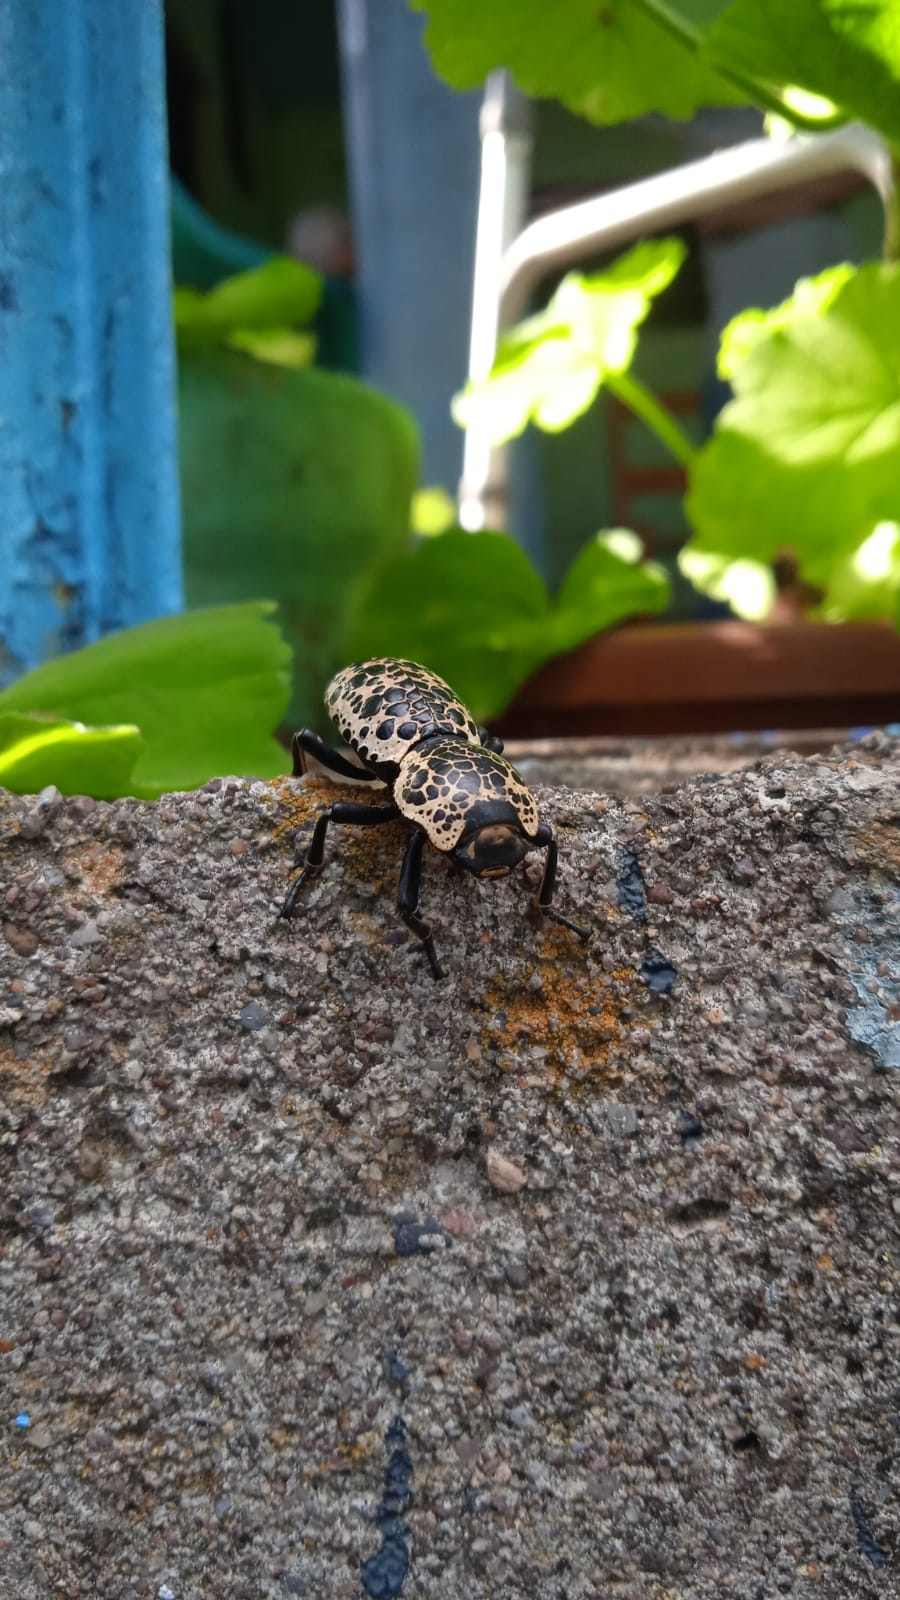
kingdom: Animalia
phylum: Arthropoda
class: Insecta
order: Coleoptera
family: Zopheridae
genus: Zopherus
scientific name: Zopherus nodulosus
